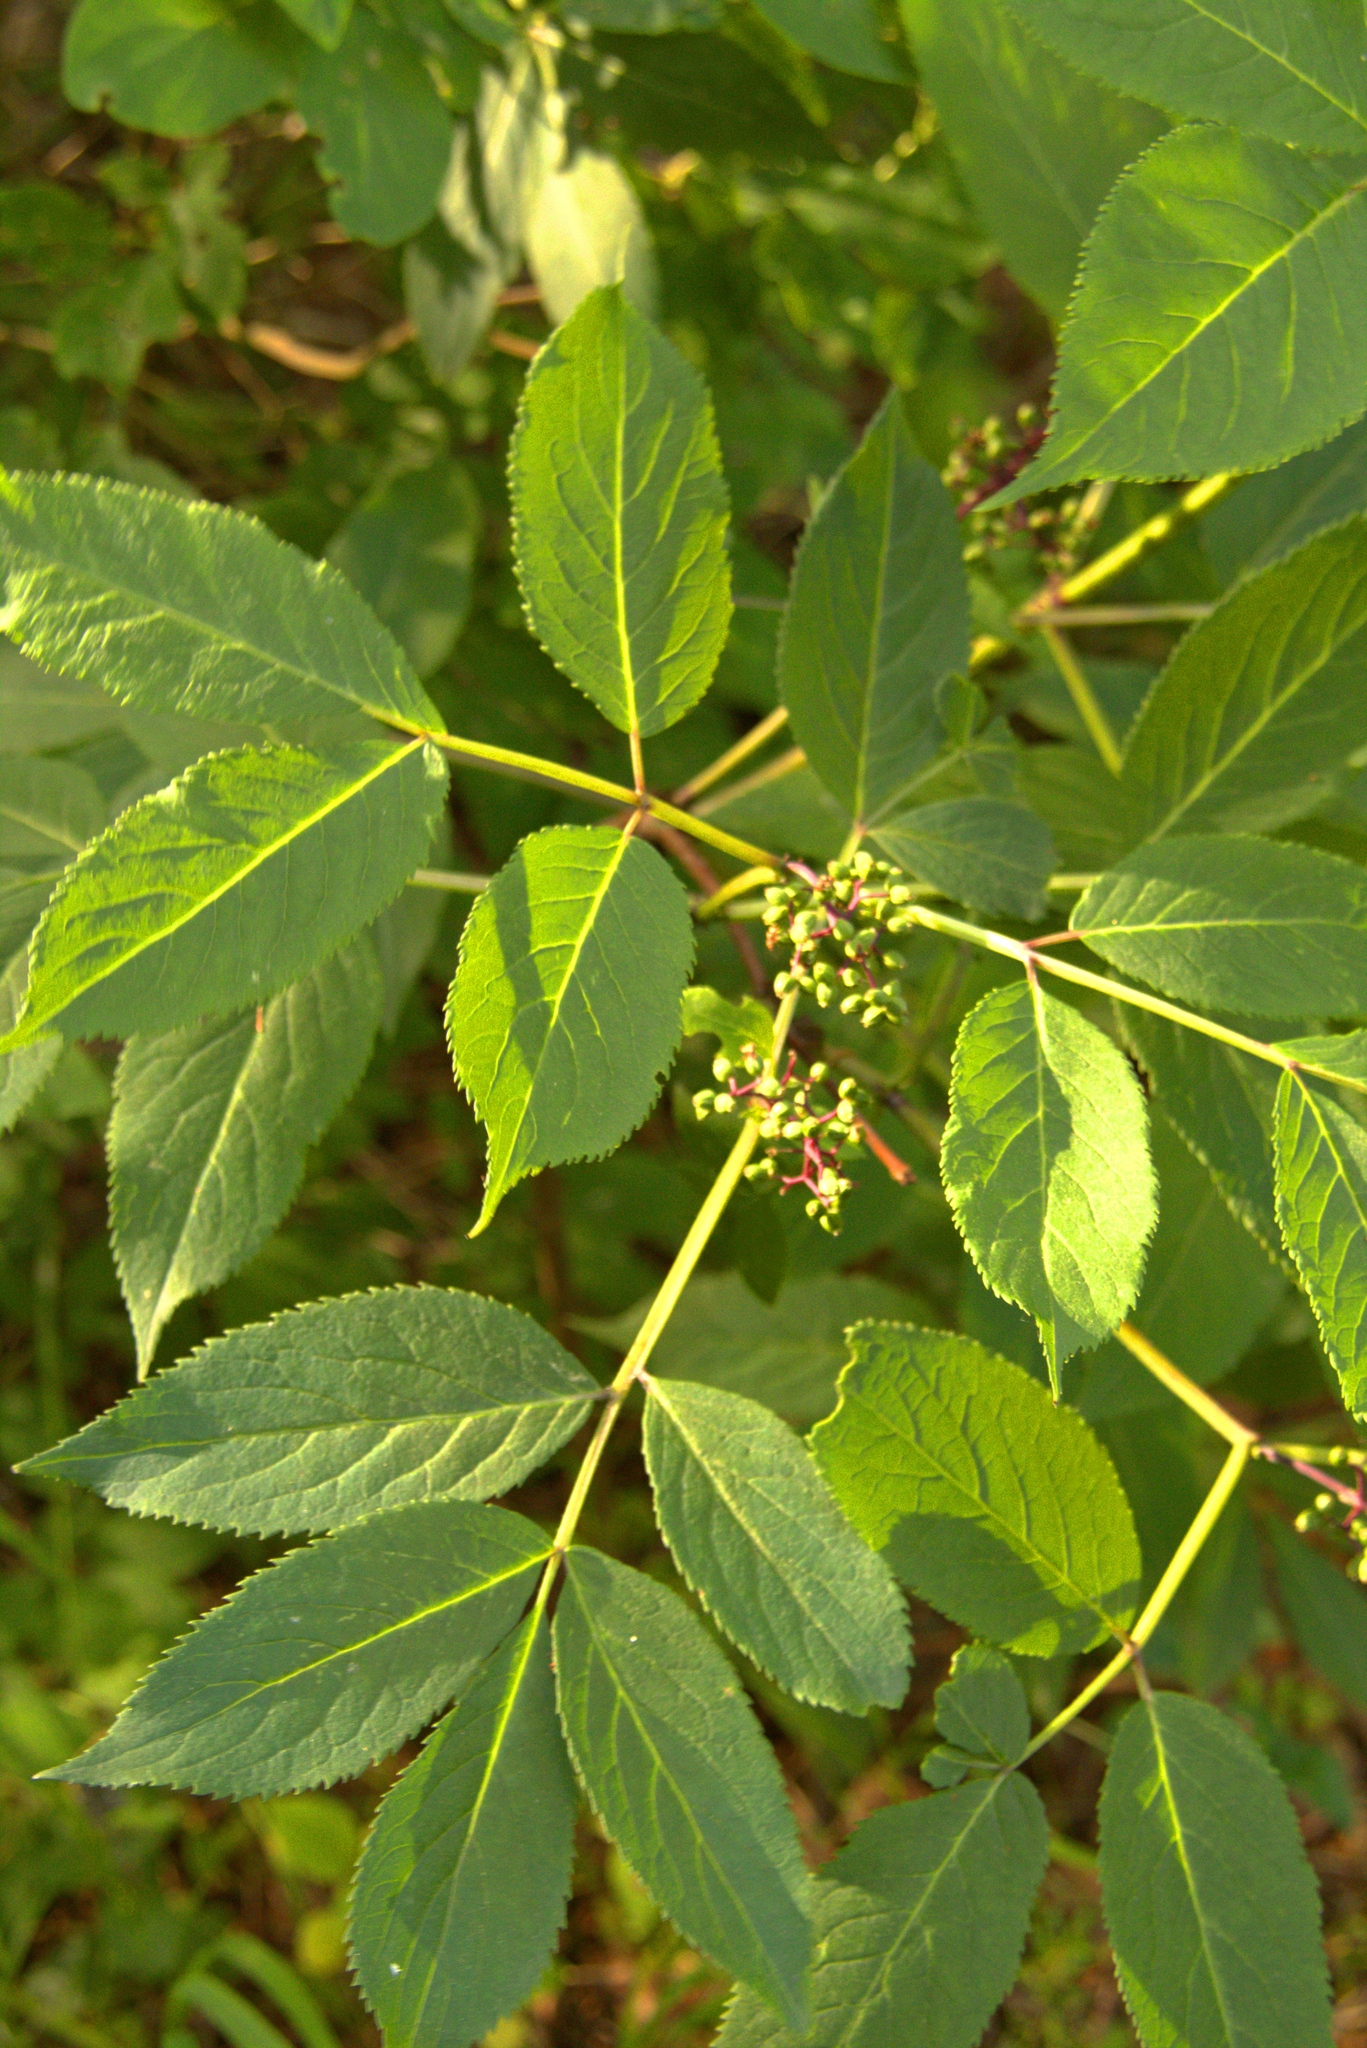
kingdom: Plantae
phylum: Tracheophyta
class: Magnoliopsida
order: Dipsacales
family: Viburnaceae
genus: Sambucus
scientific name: Sambucus racemosa
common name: Red-berried elder
